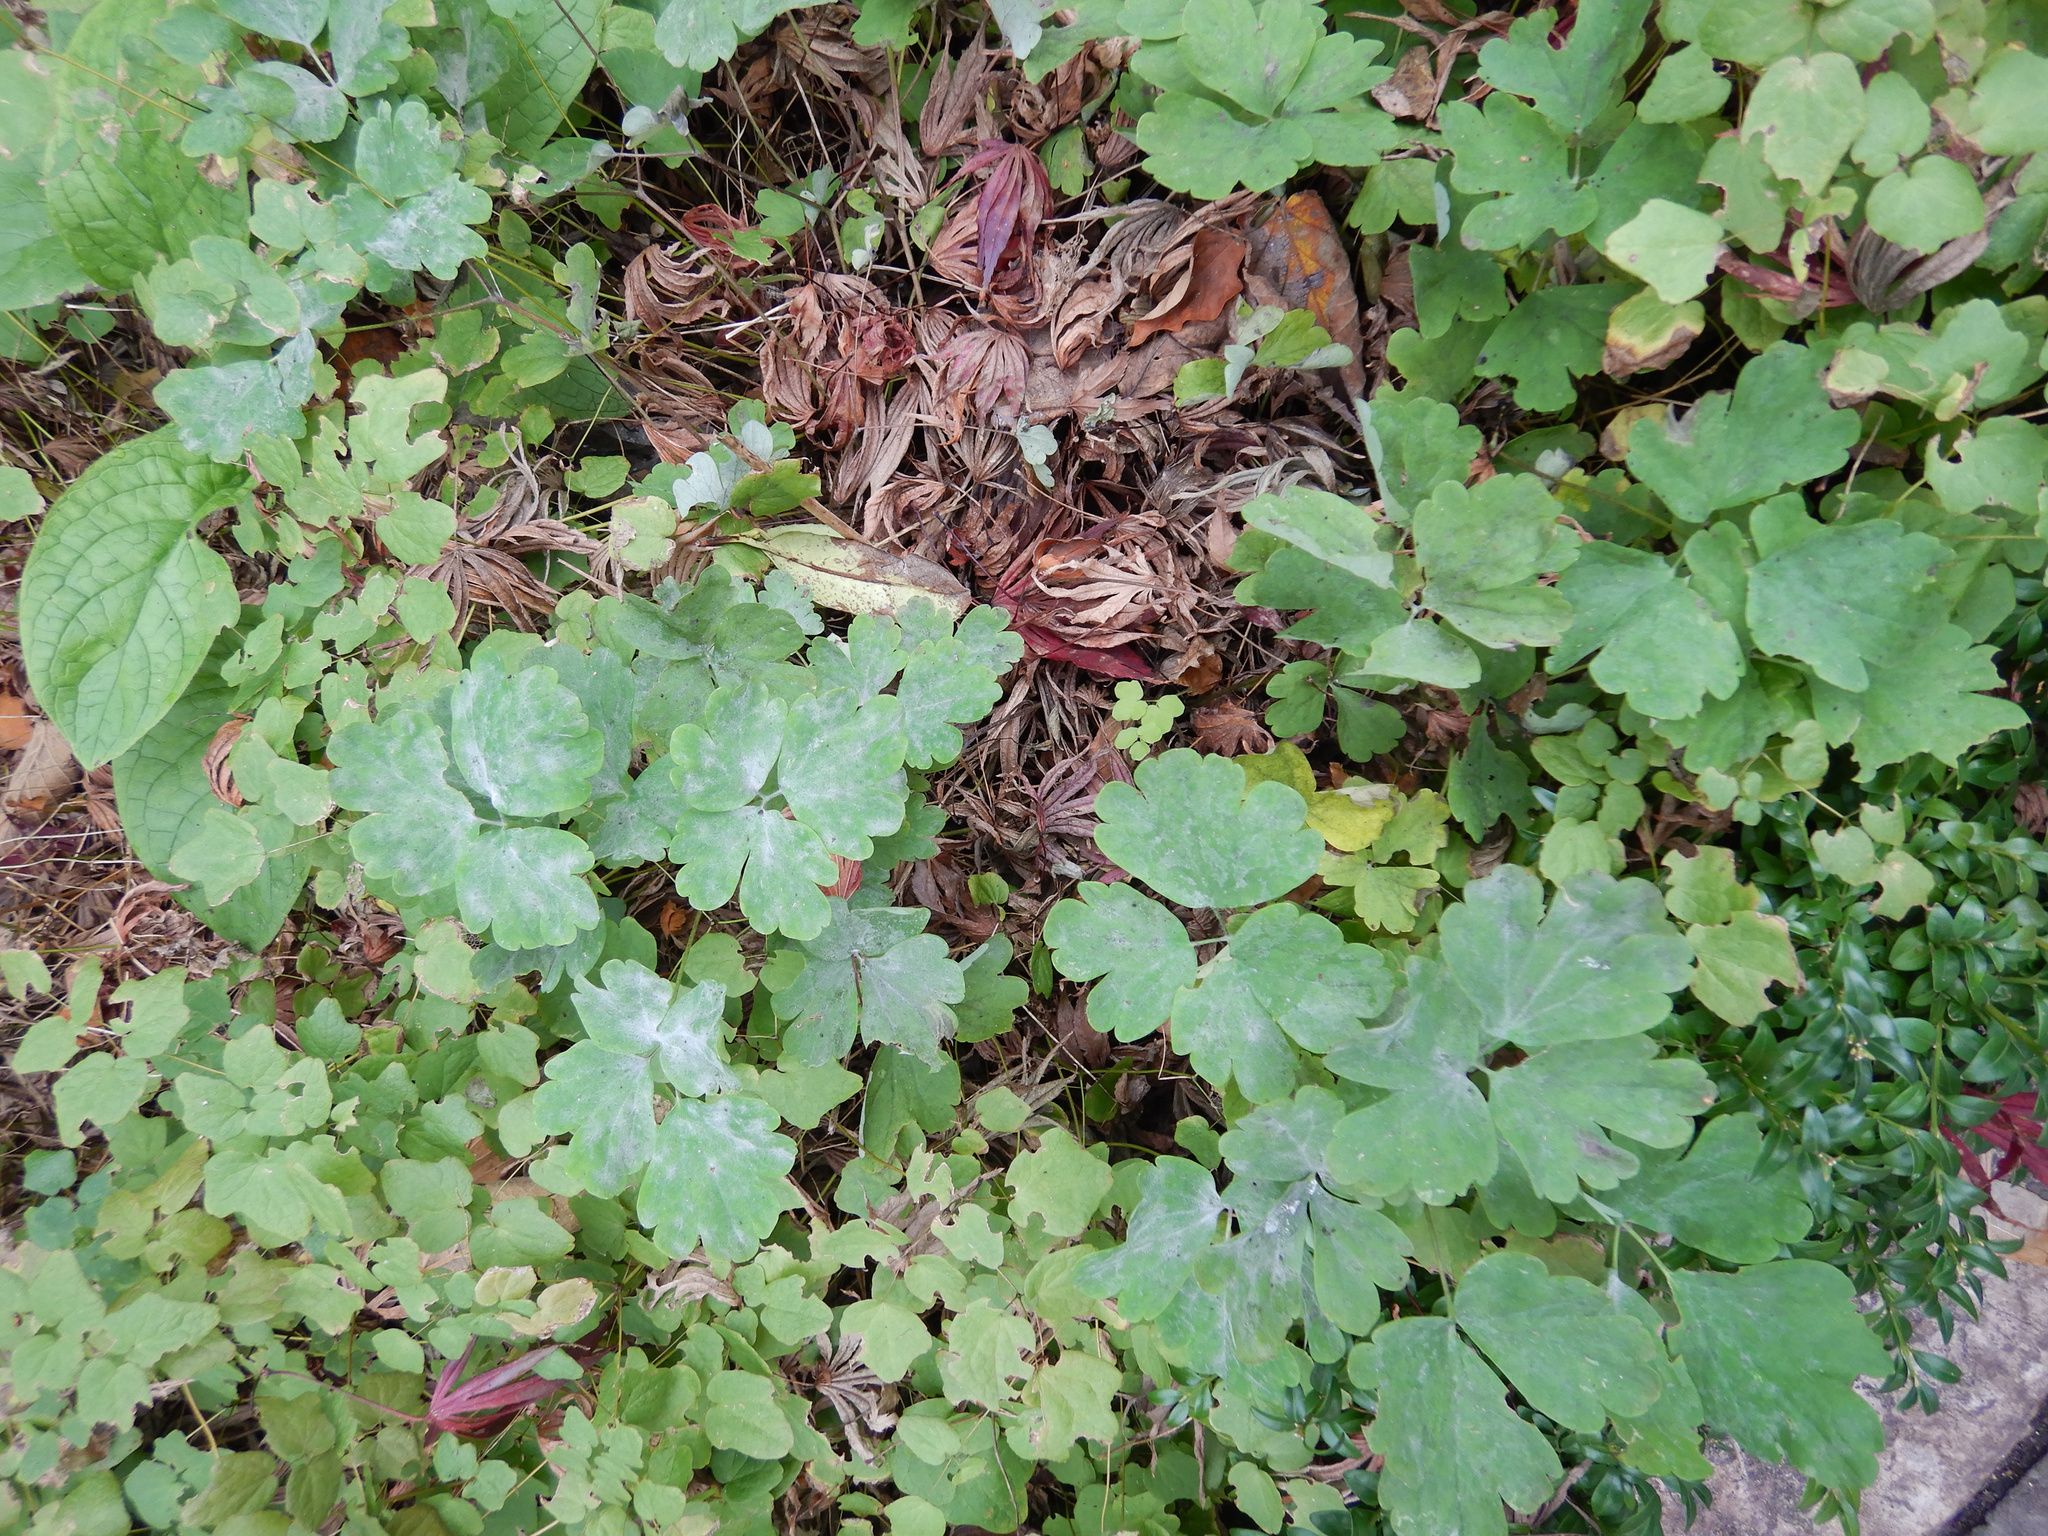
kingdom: Plantae
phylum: Tracheophyta
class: Magnoliopsida
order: Ranunculales
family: Ranunculaceae
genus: Aquilegia
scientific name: Aquilegia vulgaris
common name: Columbine
